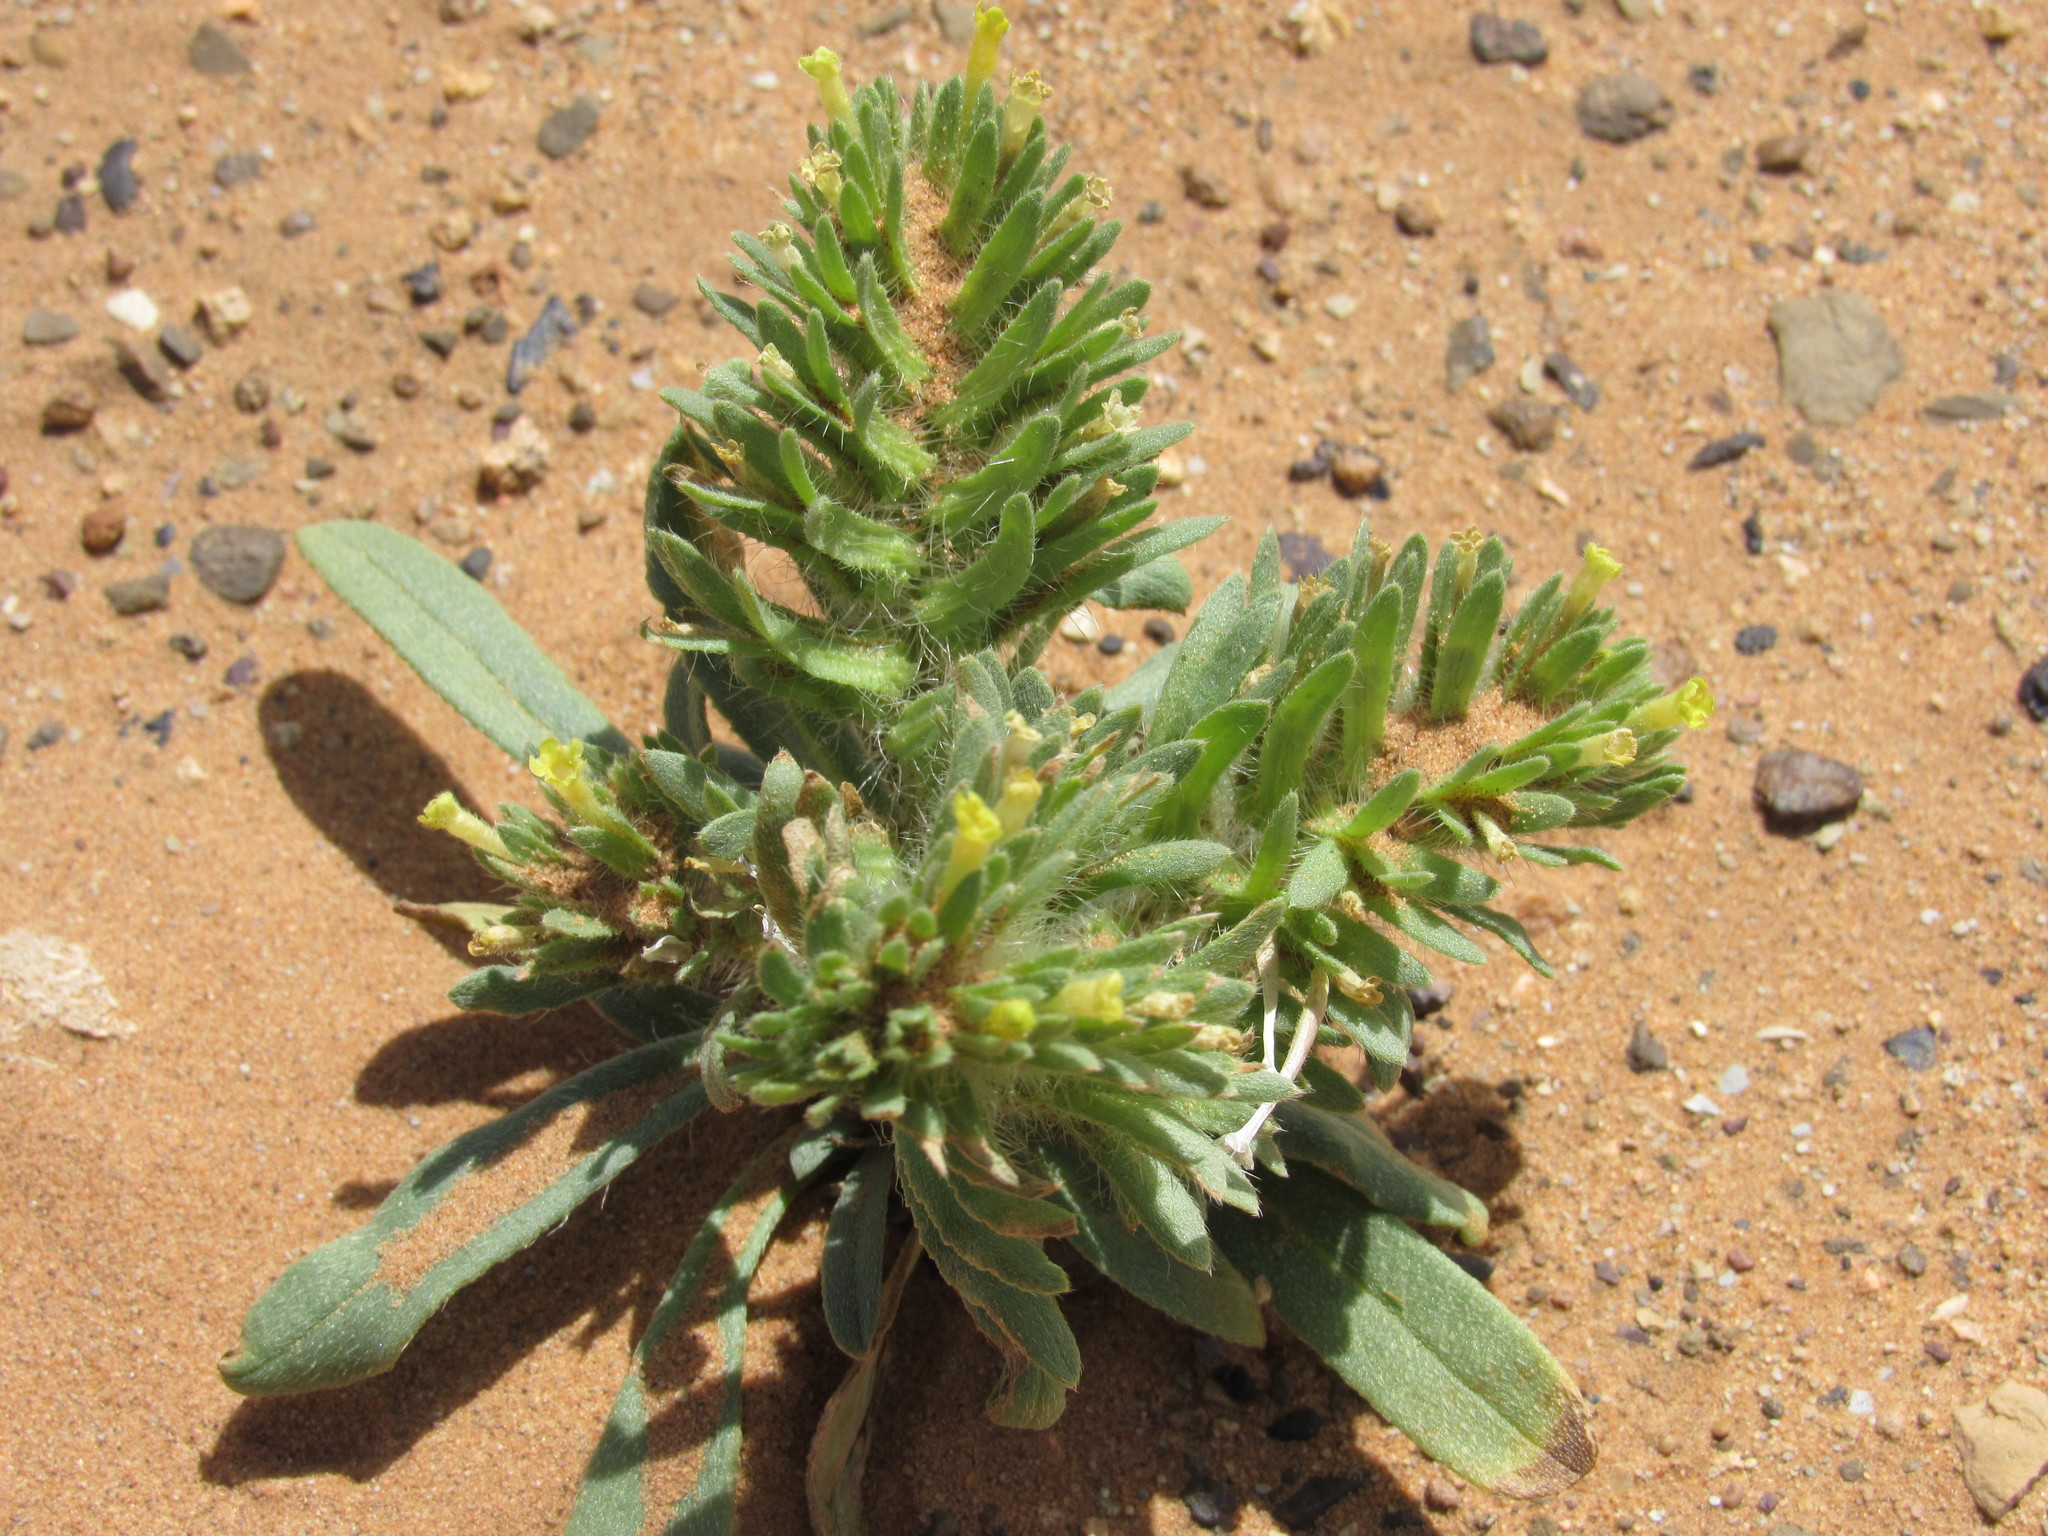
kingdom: Plantae
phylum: Tracheophyta
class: Magnoliopsida
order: Boraginales
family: Boraginaceae
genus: Arnebia
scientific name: Arnebia decumbens
